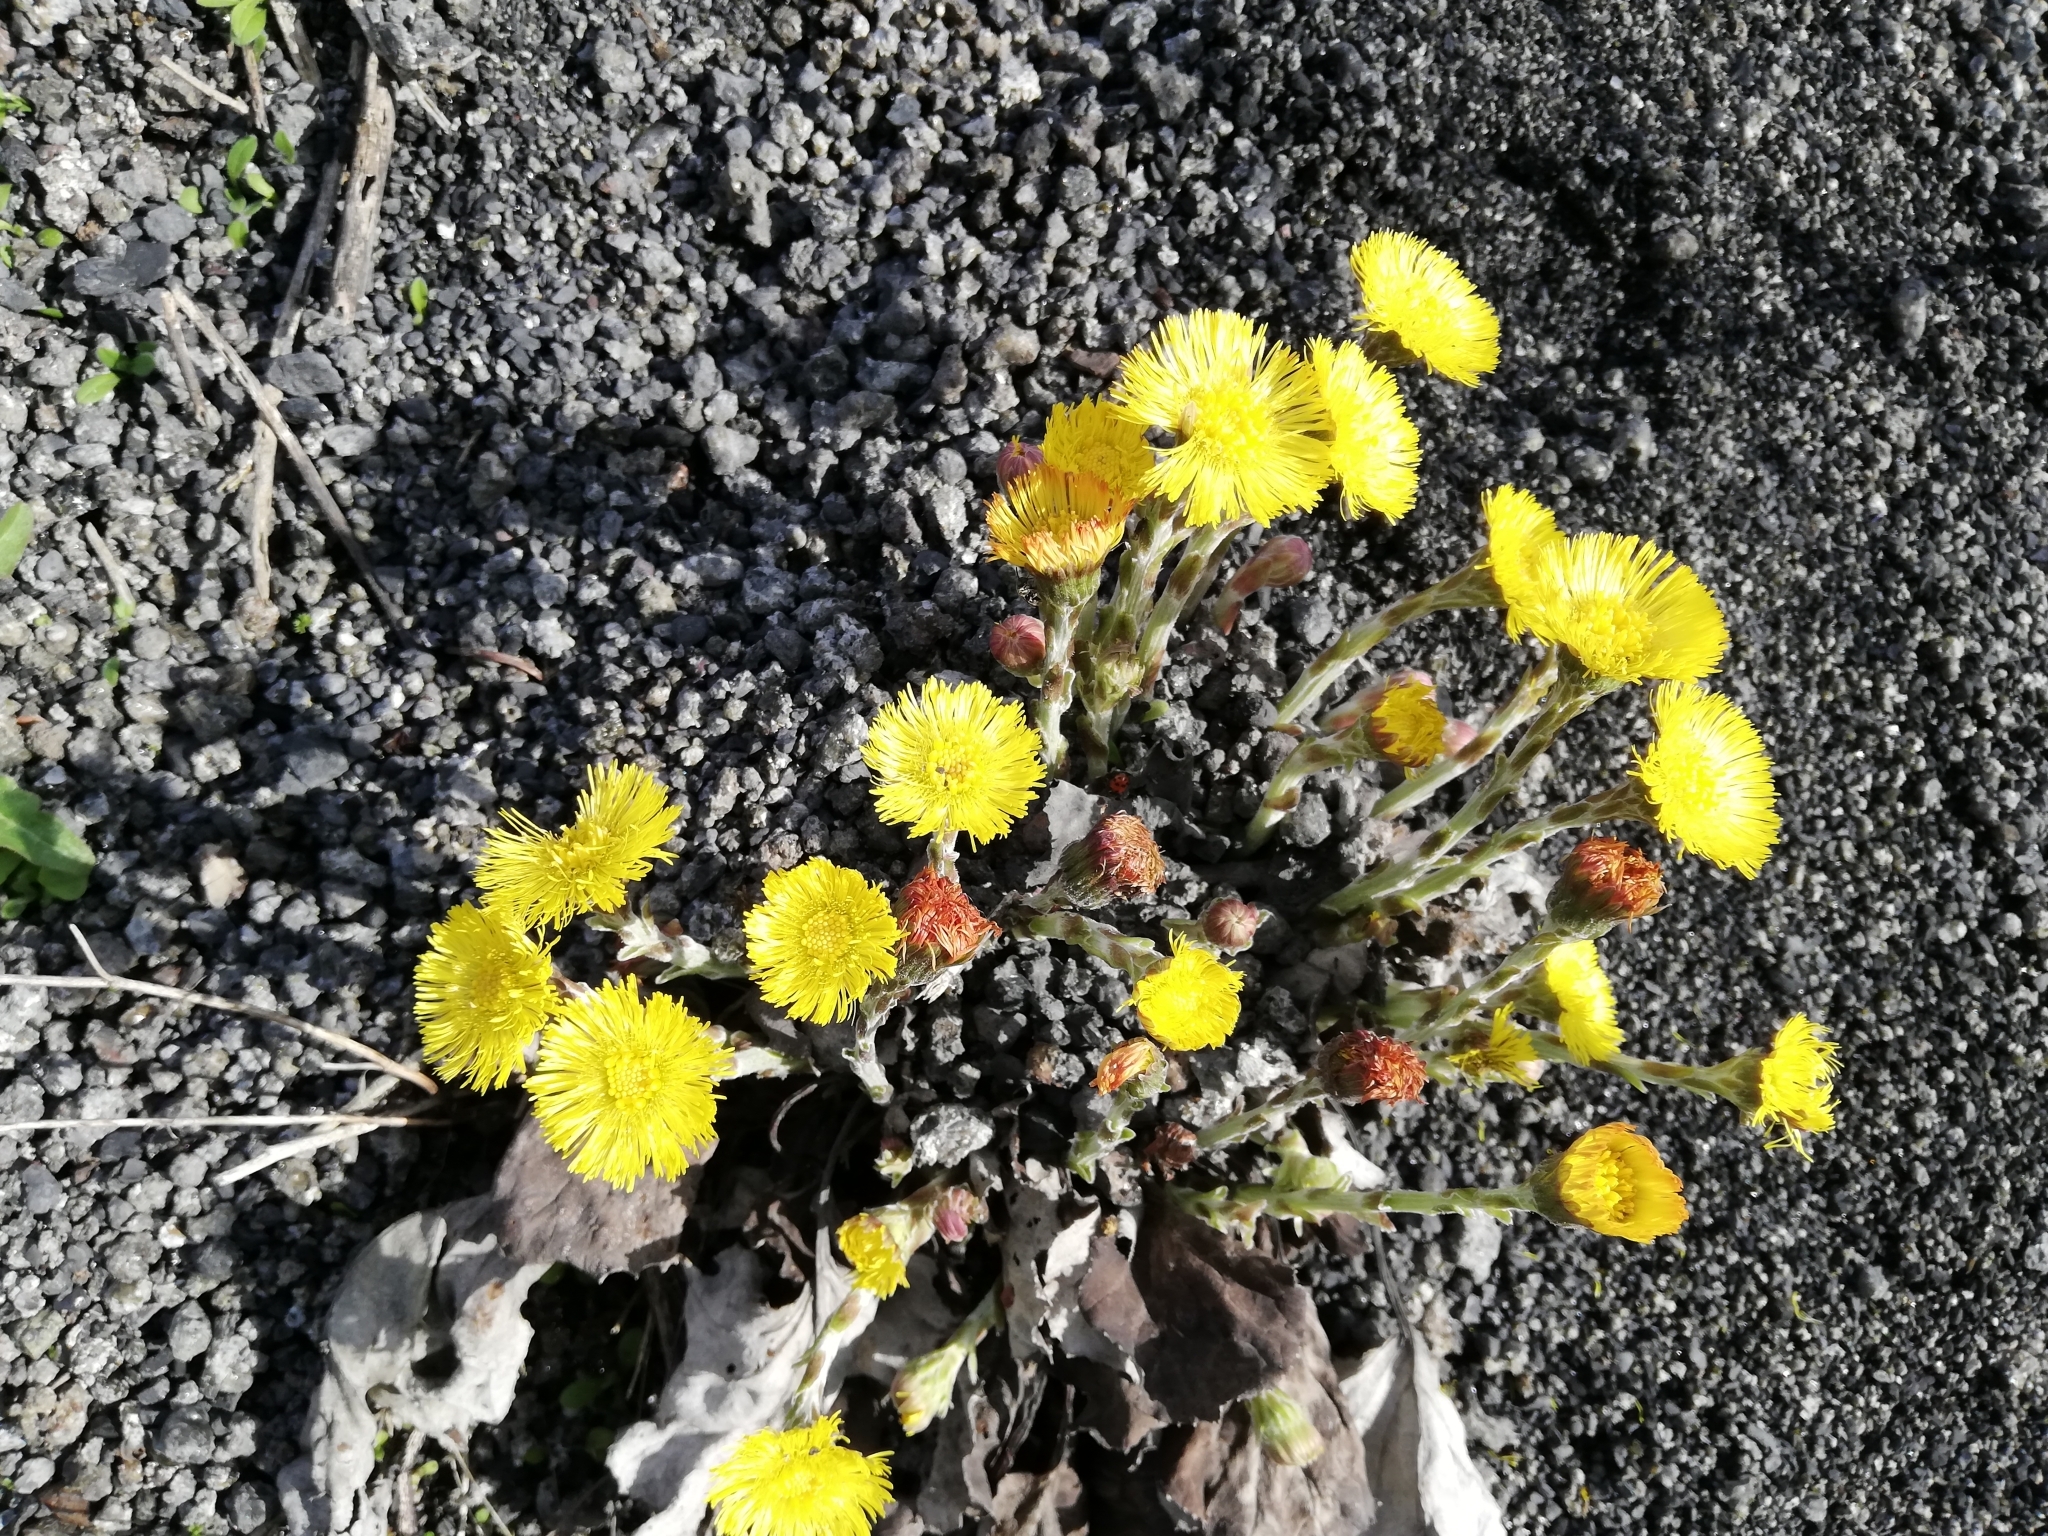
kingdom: Plantae
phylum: Tracheophyta
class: Magnoliopsida
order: Asterales
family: Asteraceae
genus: Tussilago
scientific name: Tussilago farfara
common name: Coltsfoot
